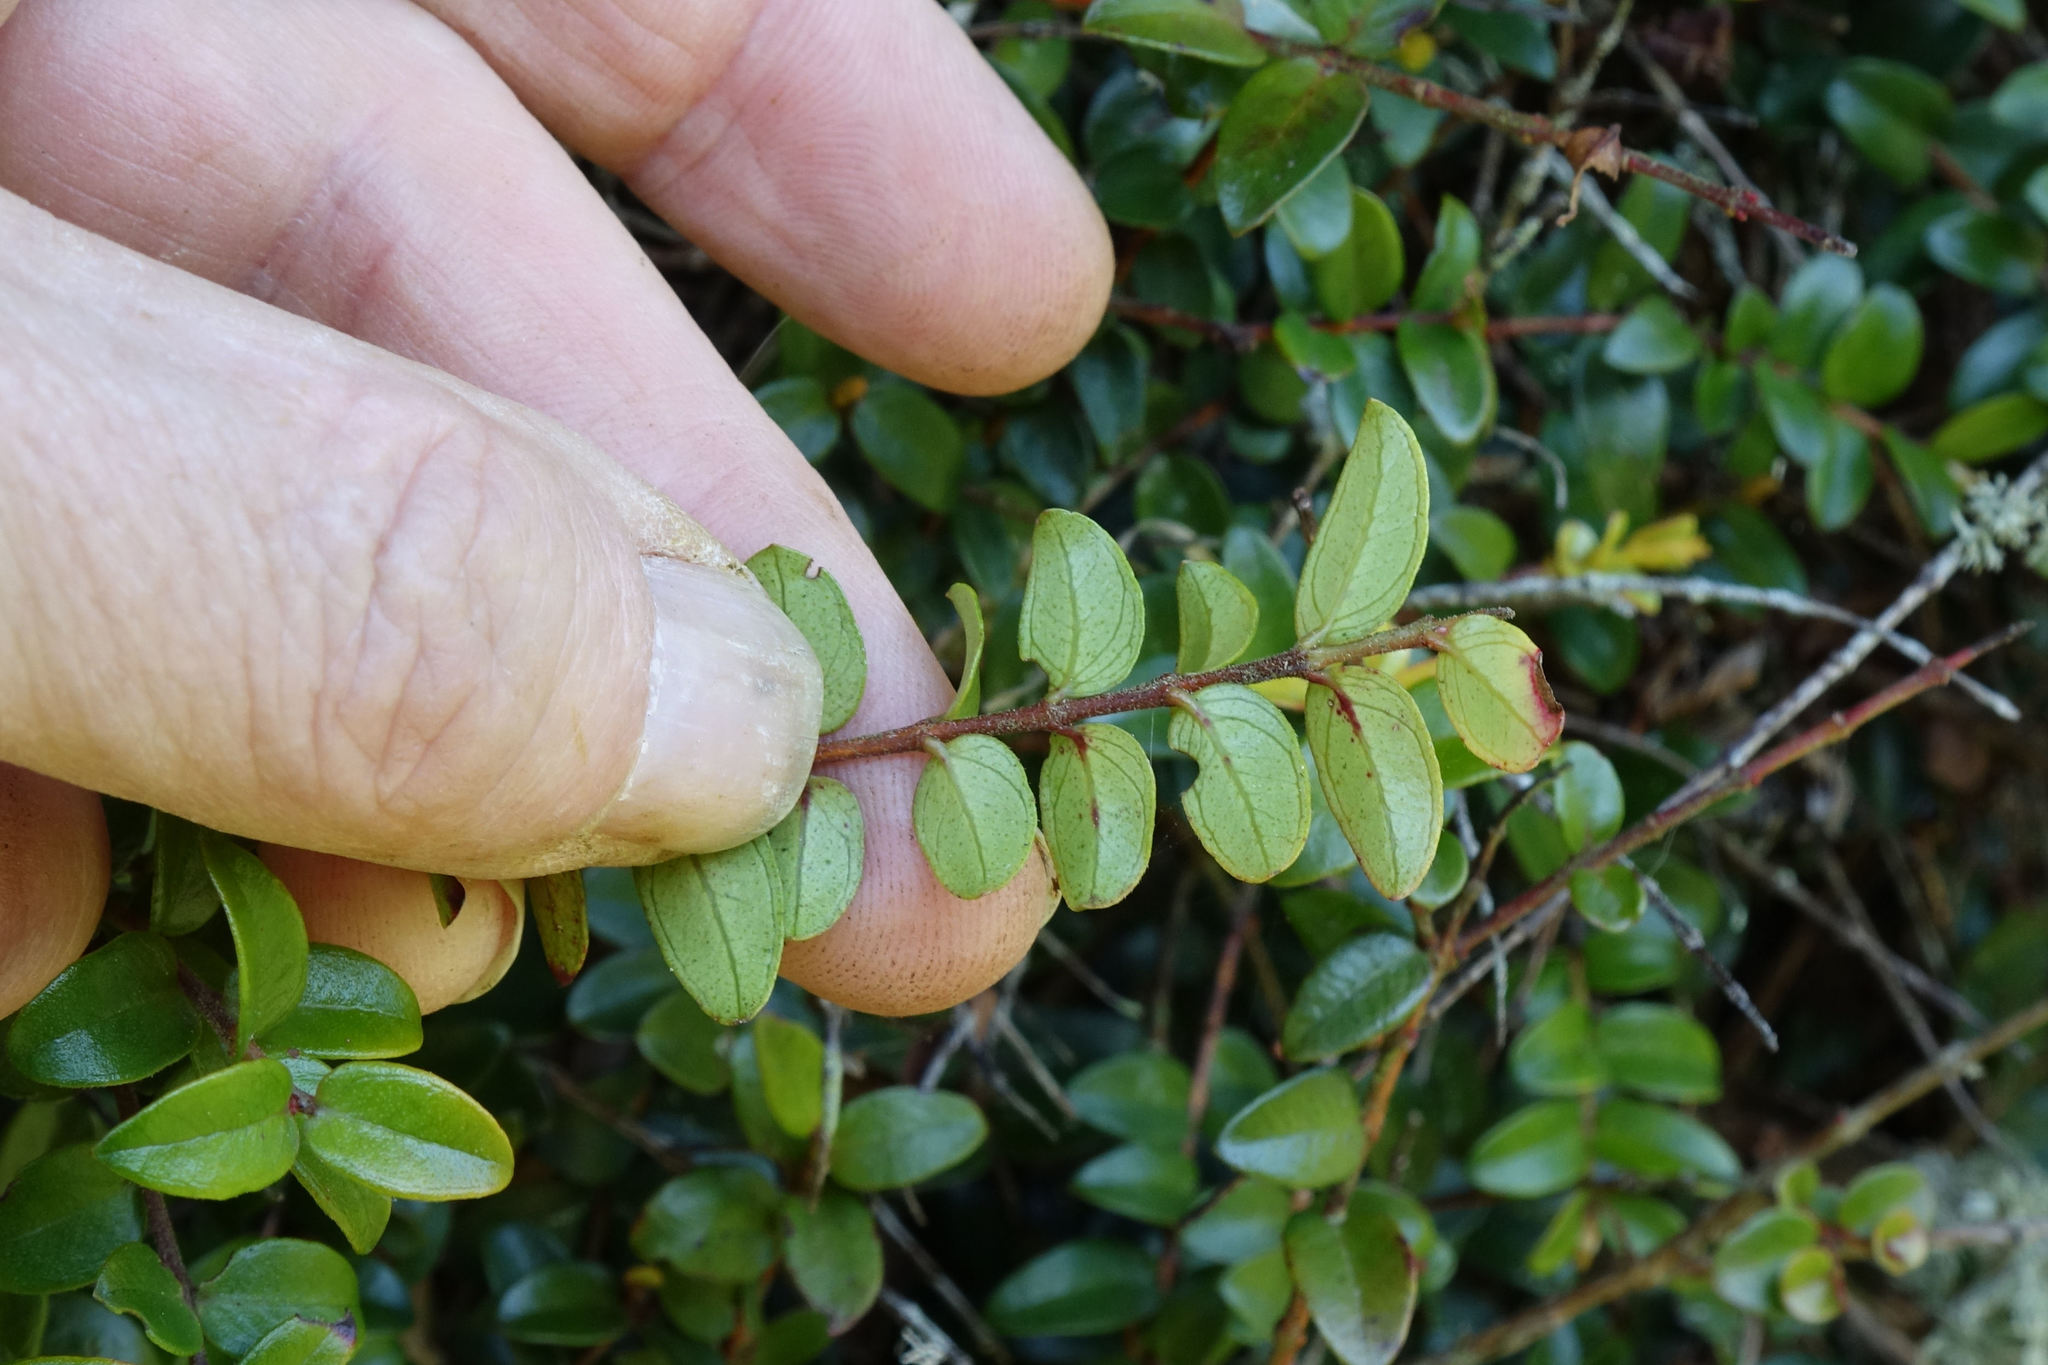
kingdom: Plantae
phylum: Tracheophyta
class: Magnoliopsida
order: Myrtales
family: Myrtaceae
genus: Metrosideros
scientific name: Metrosideros diffusa
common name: Small ratavine
